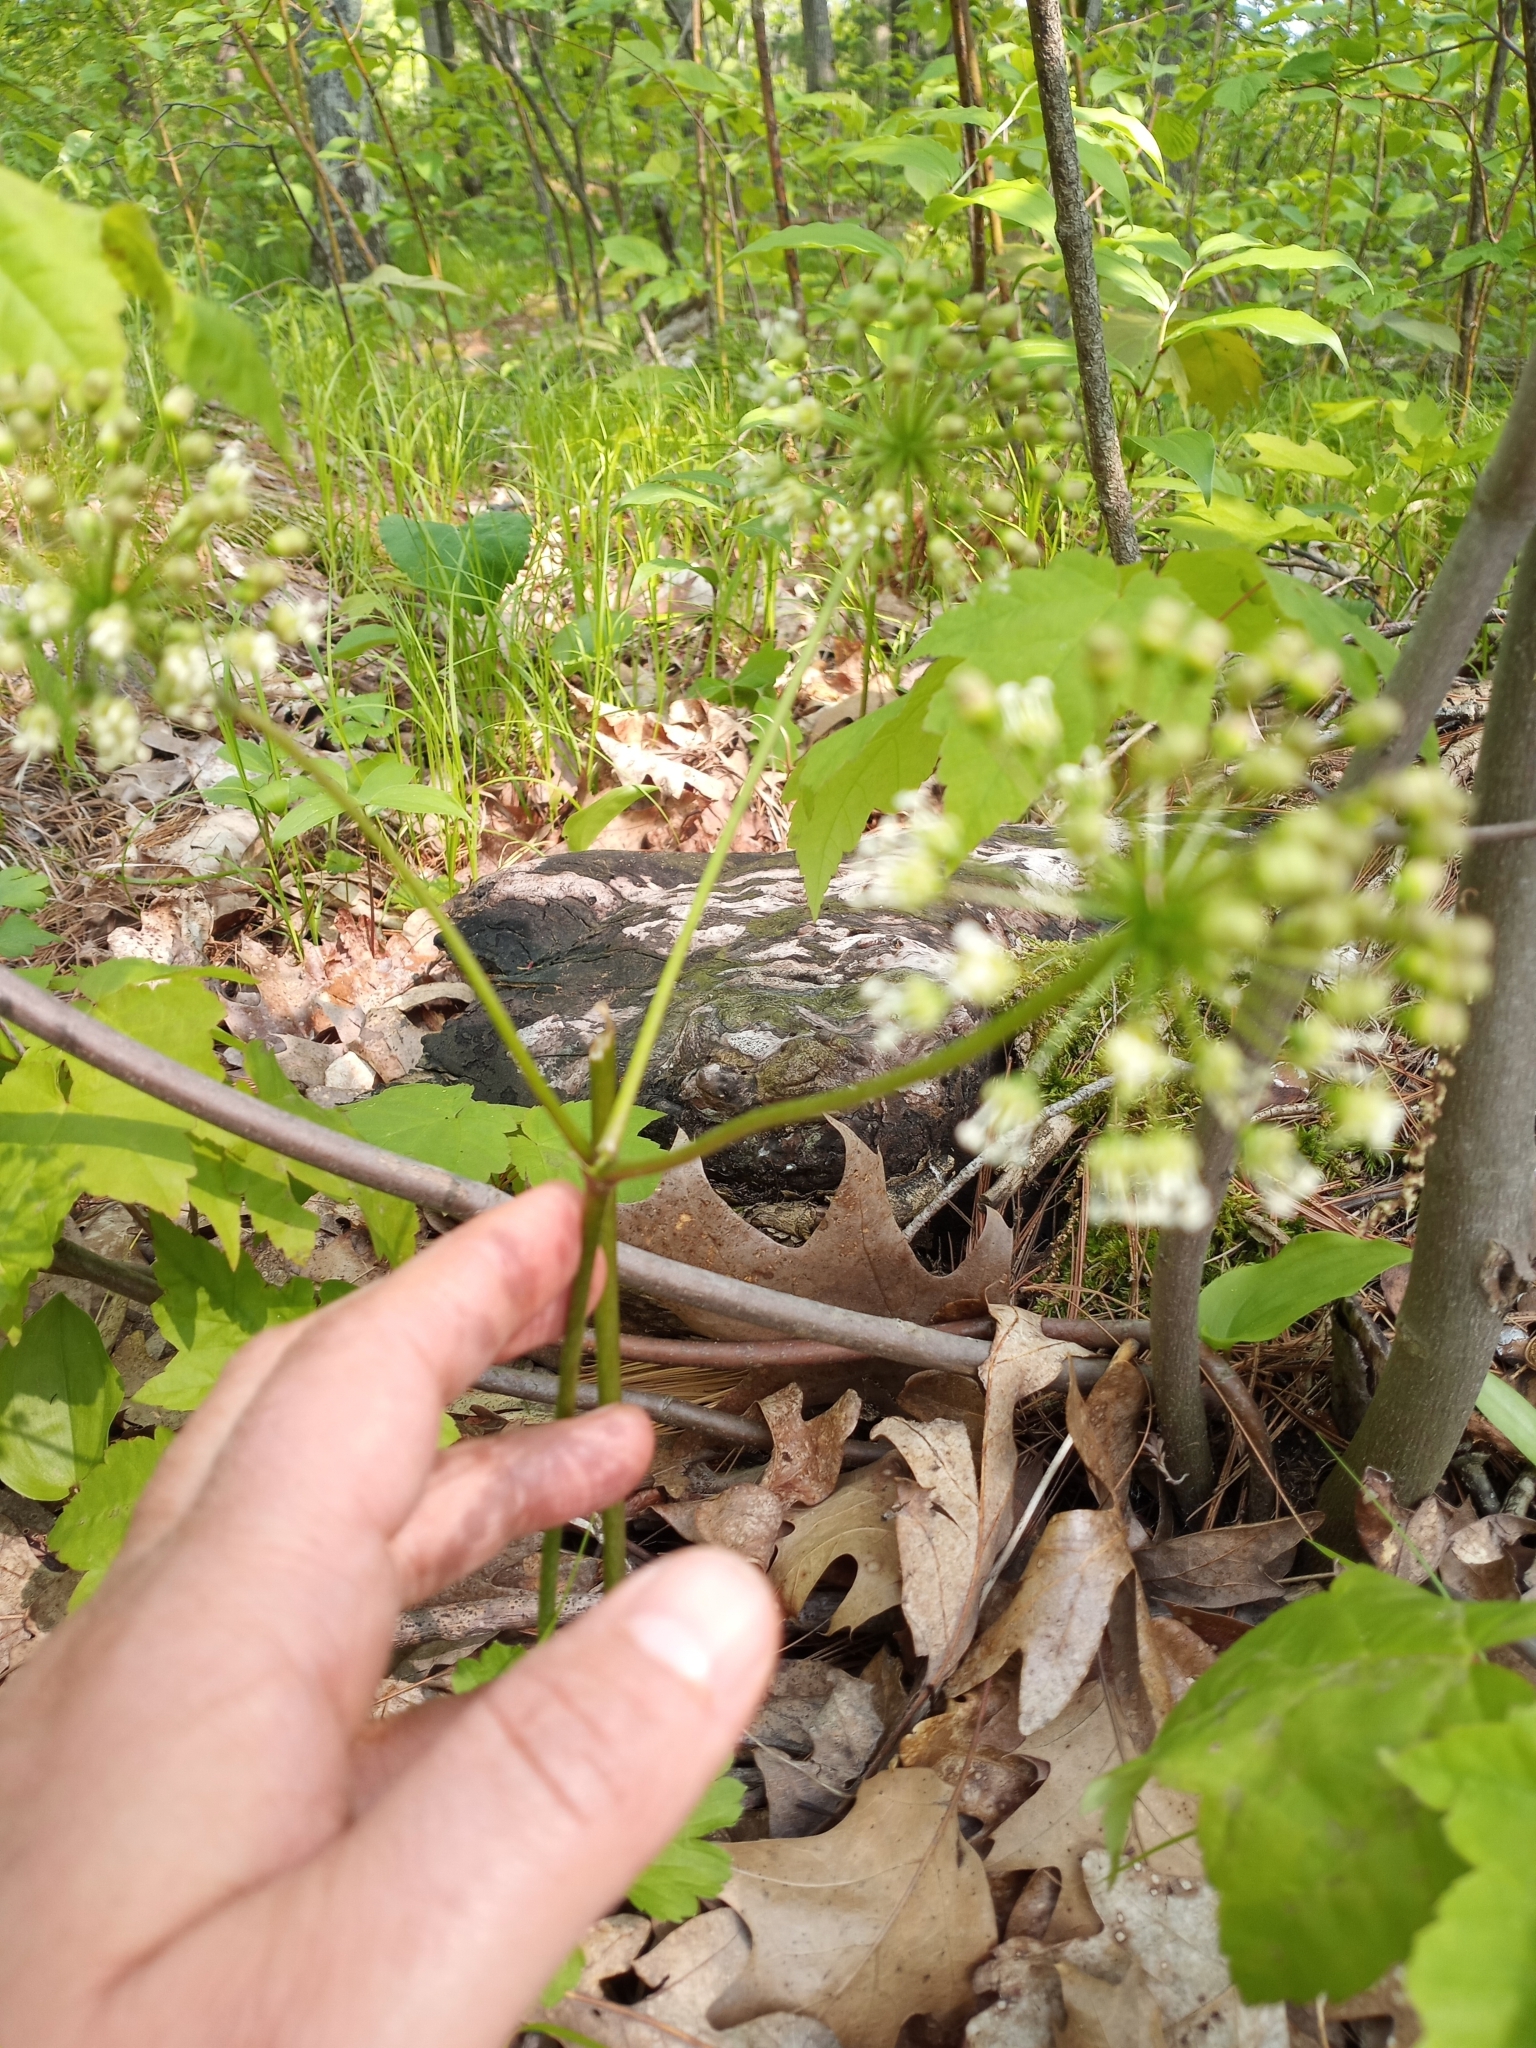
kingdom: Plantae
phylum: Tracheophyta
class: Magnoliopsida
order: Apiales
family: Araliaceae
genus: Aralia
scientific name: Aralia nudicaulis
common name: Wild sarsaparilla
